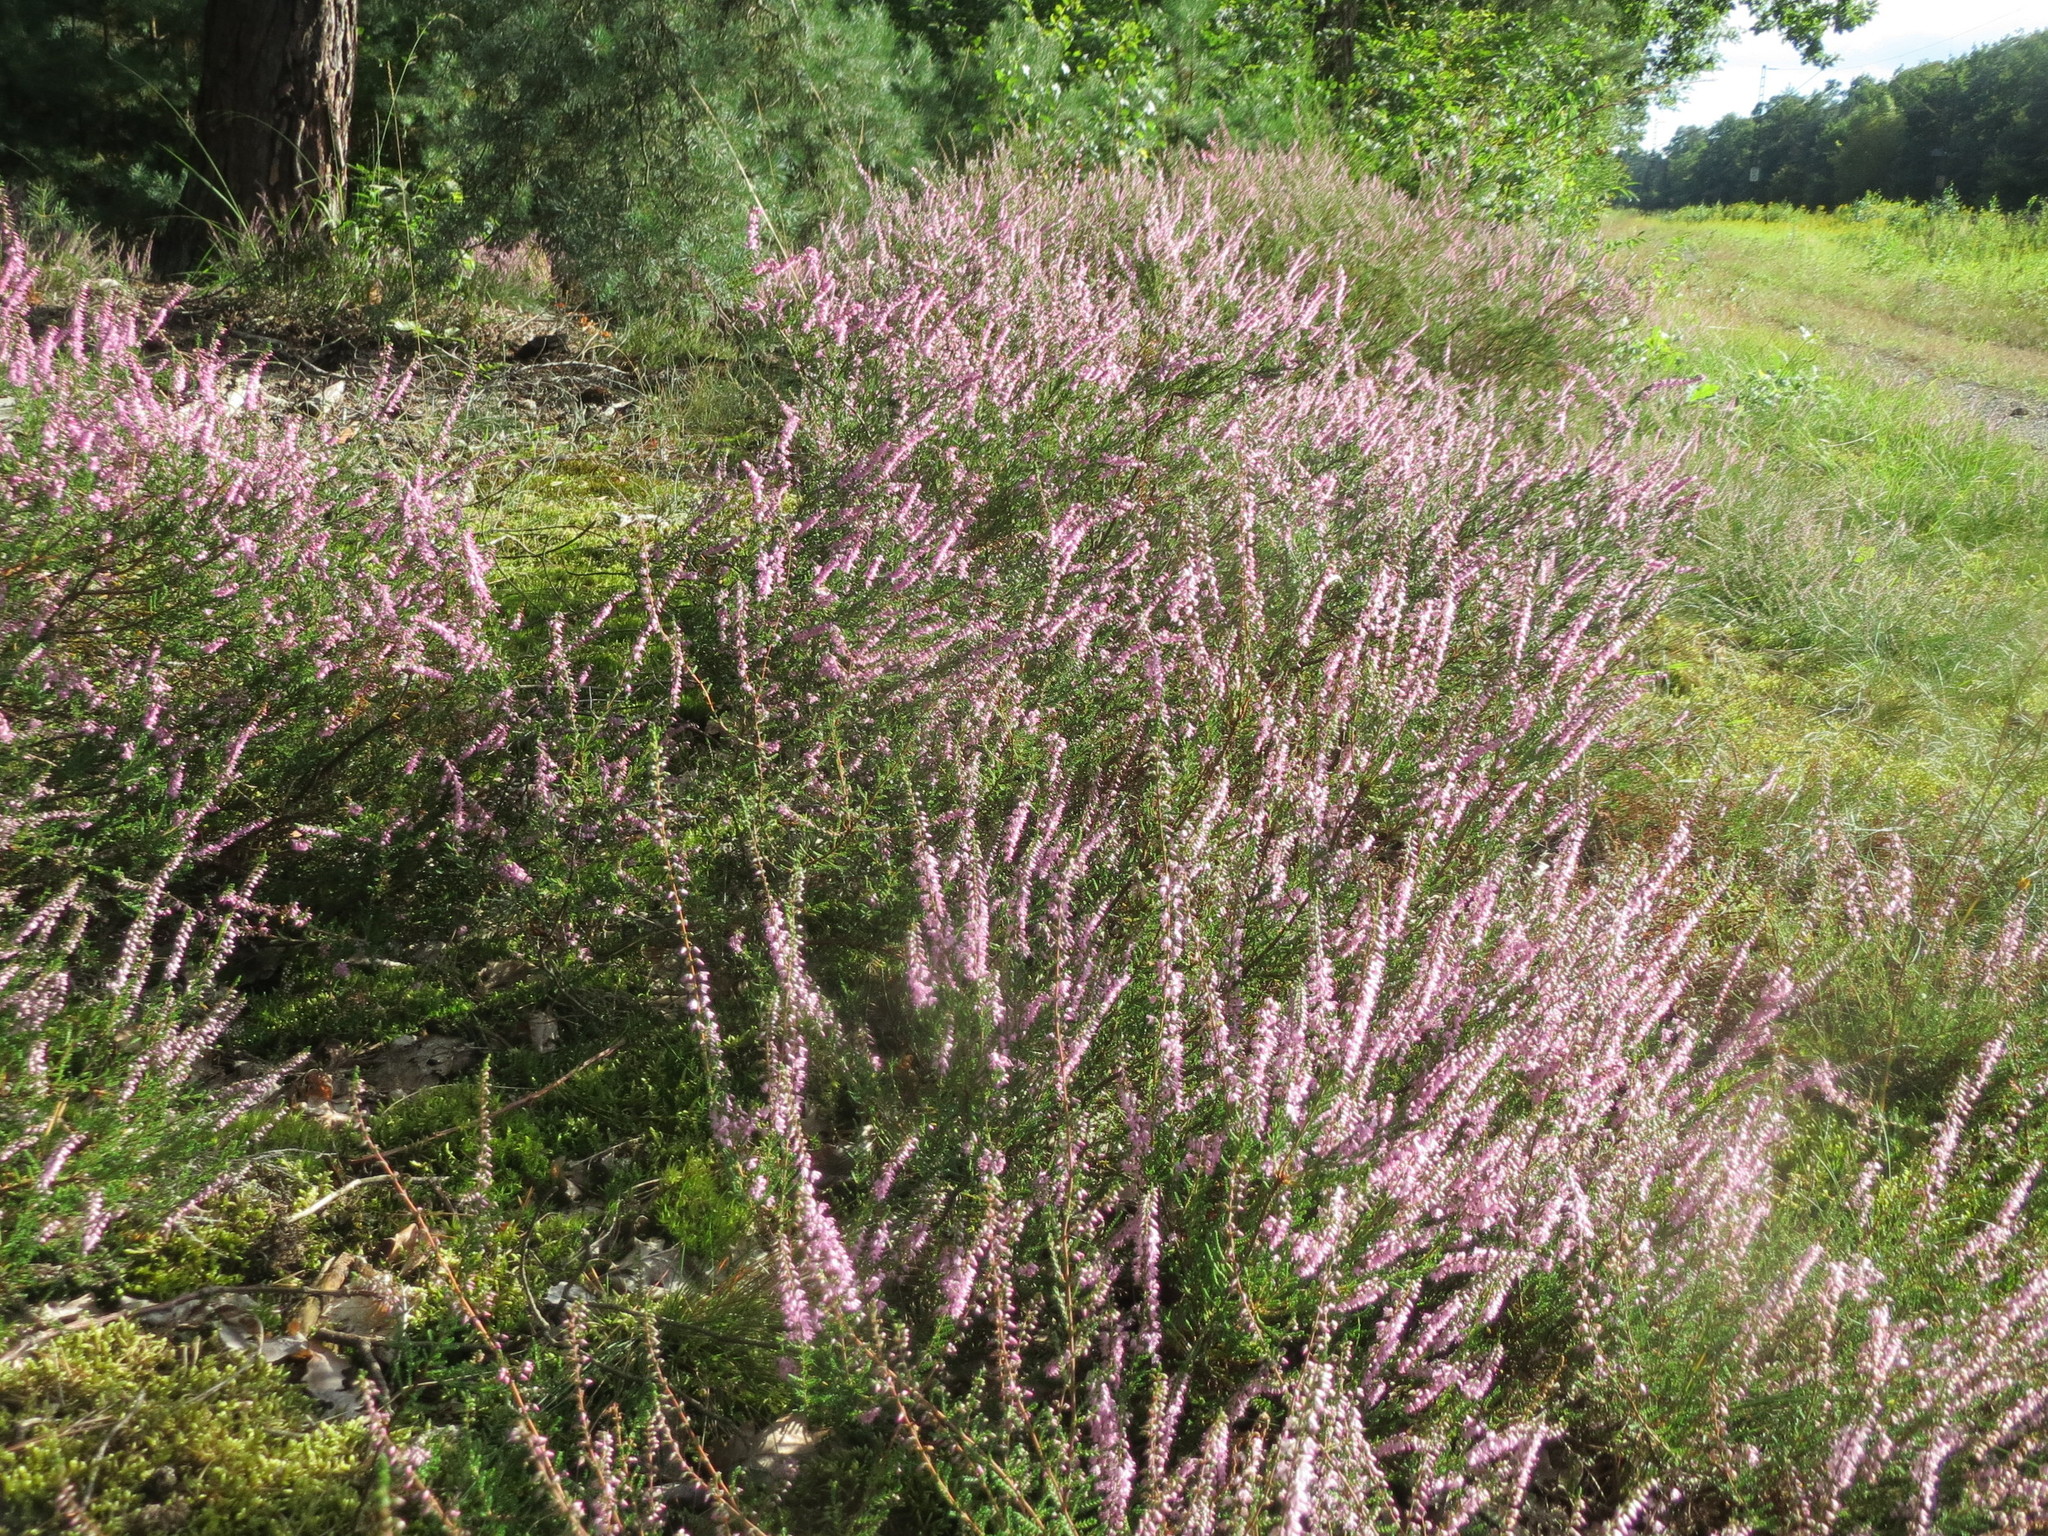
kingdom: Plantae
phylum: Tracheophyta
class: Magnoliopsida
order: Ericales
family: Ericaceae
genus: Calluna
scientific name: Calluna vulgaris
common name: Heather
